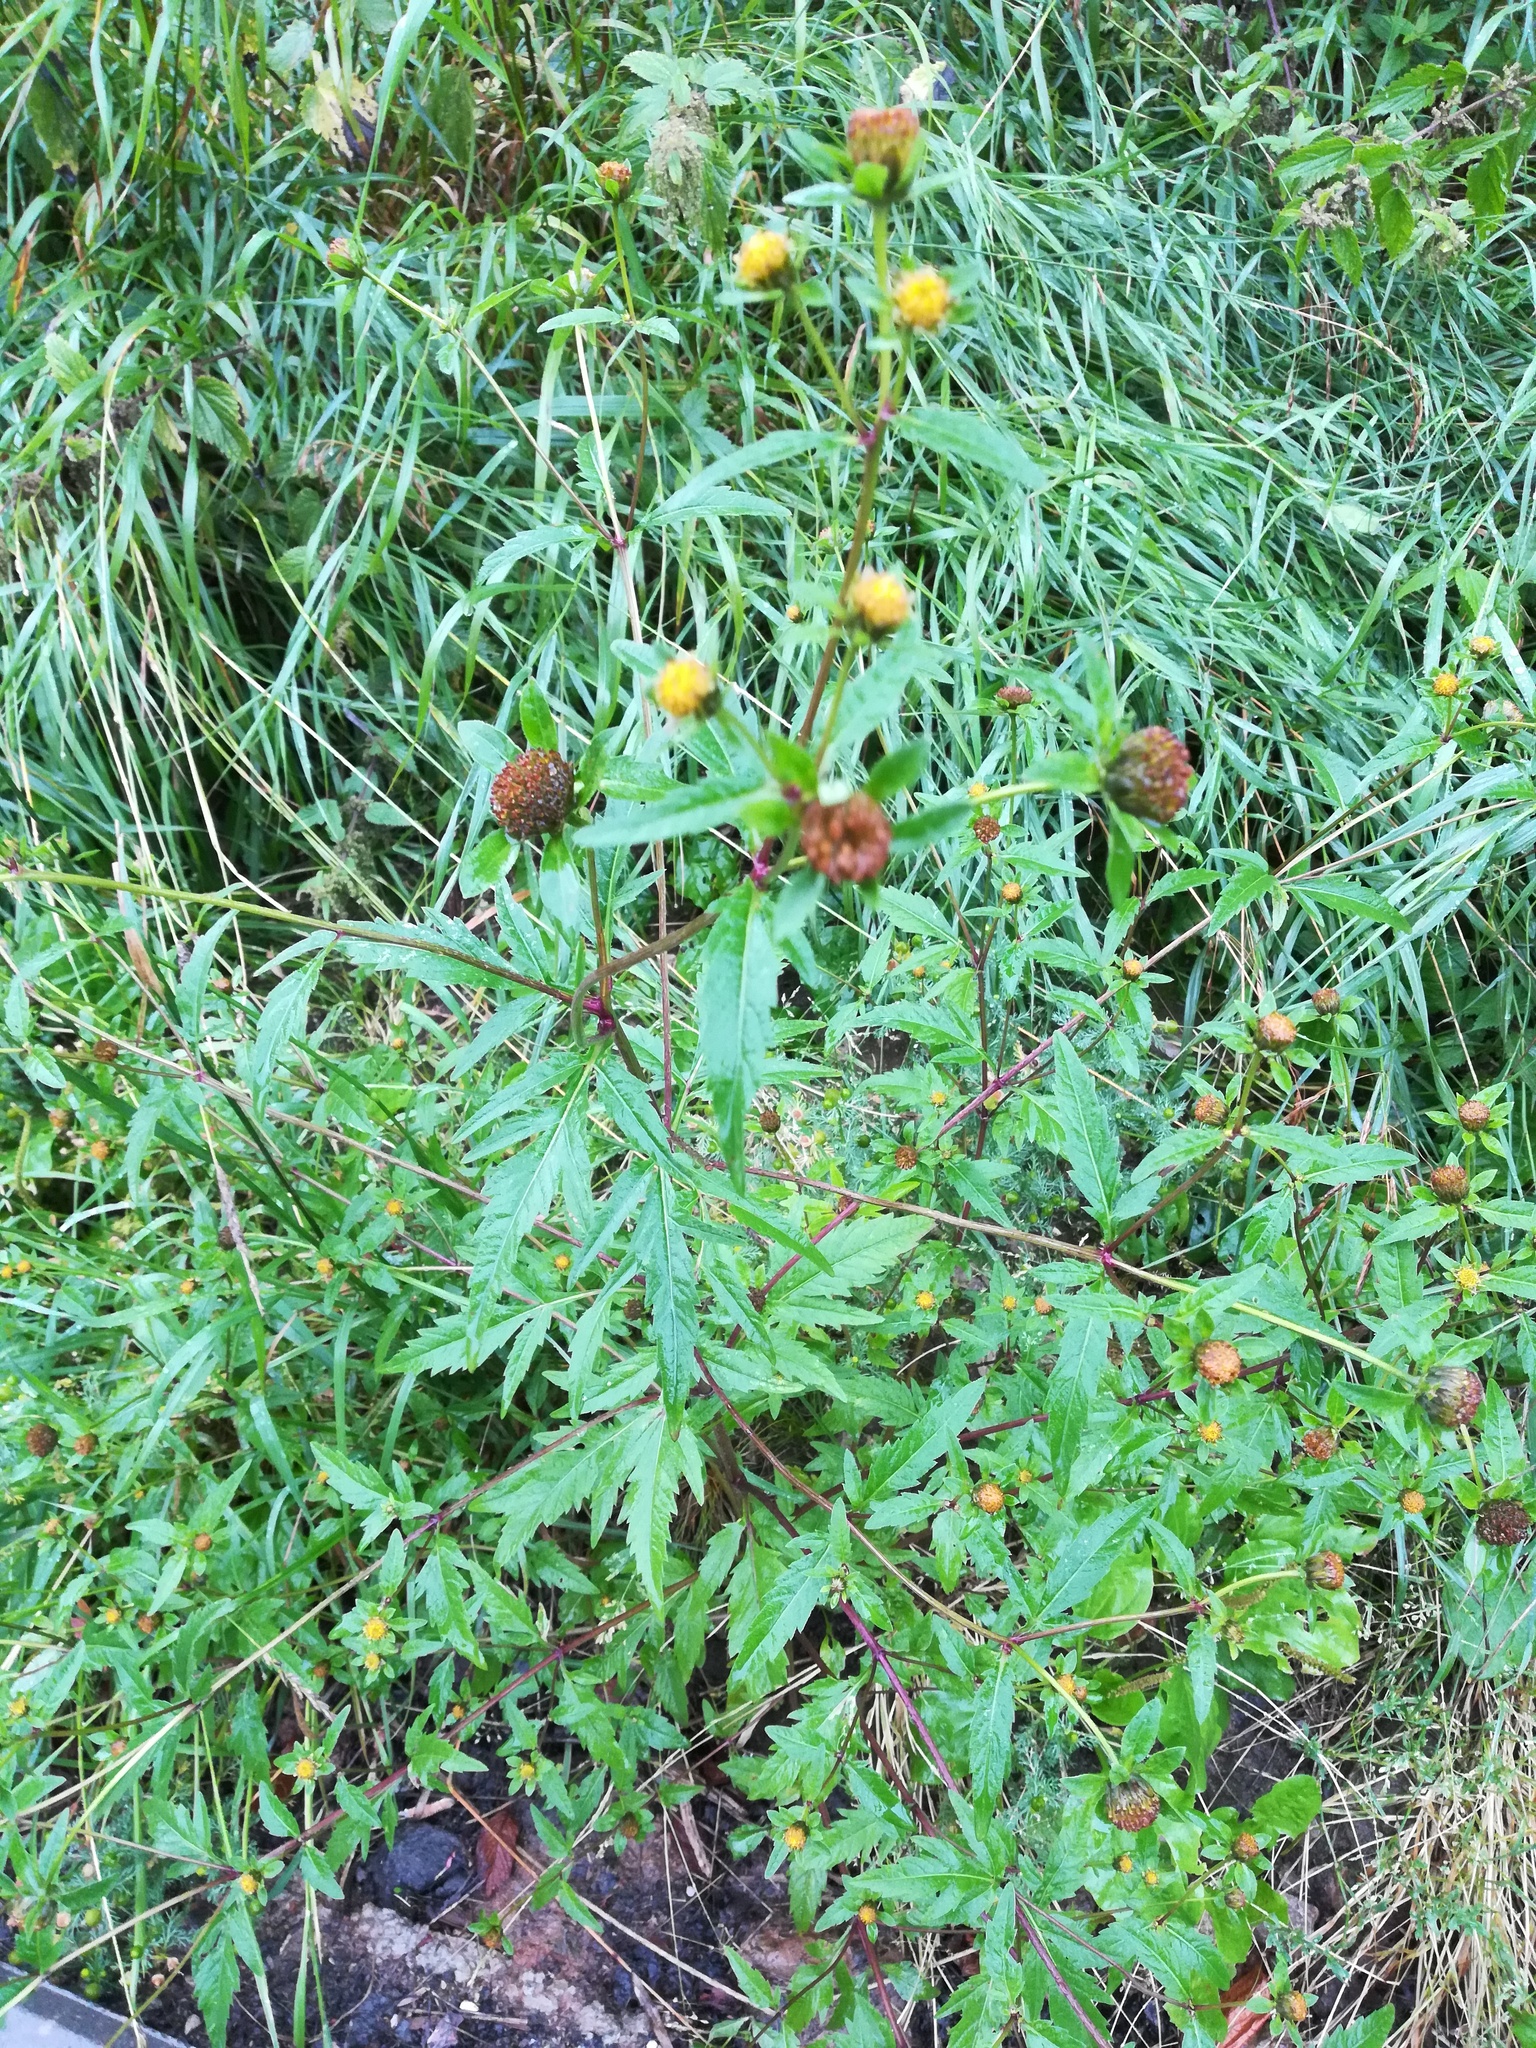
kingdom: Plantae
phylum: Tracheophyta
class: Magnoliopsida
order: Asterales
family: Asteraceae
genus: Bidens
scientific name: Bidens tripartita
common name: Trifid bur-marigold
